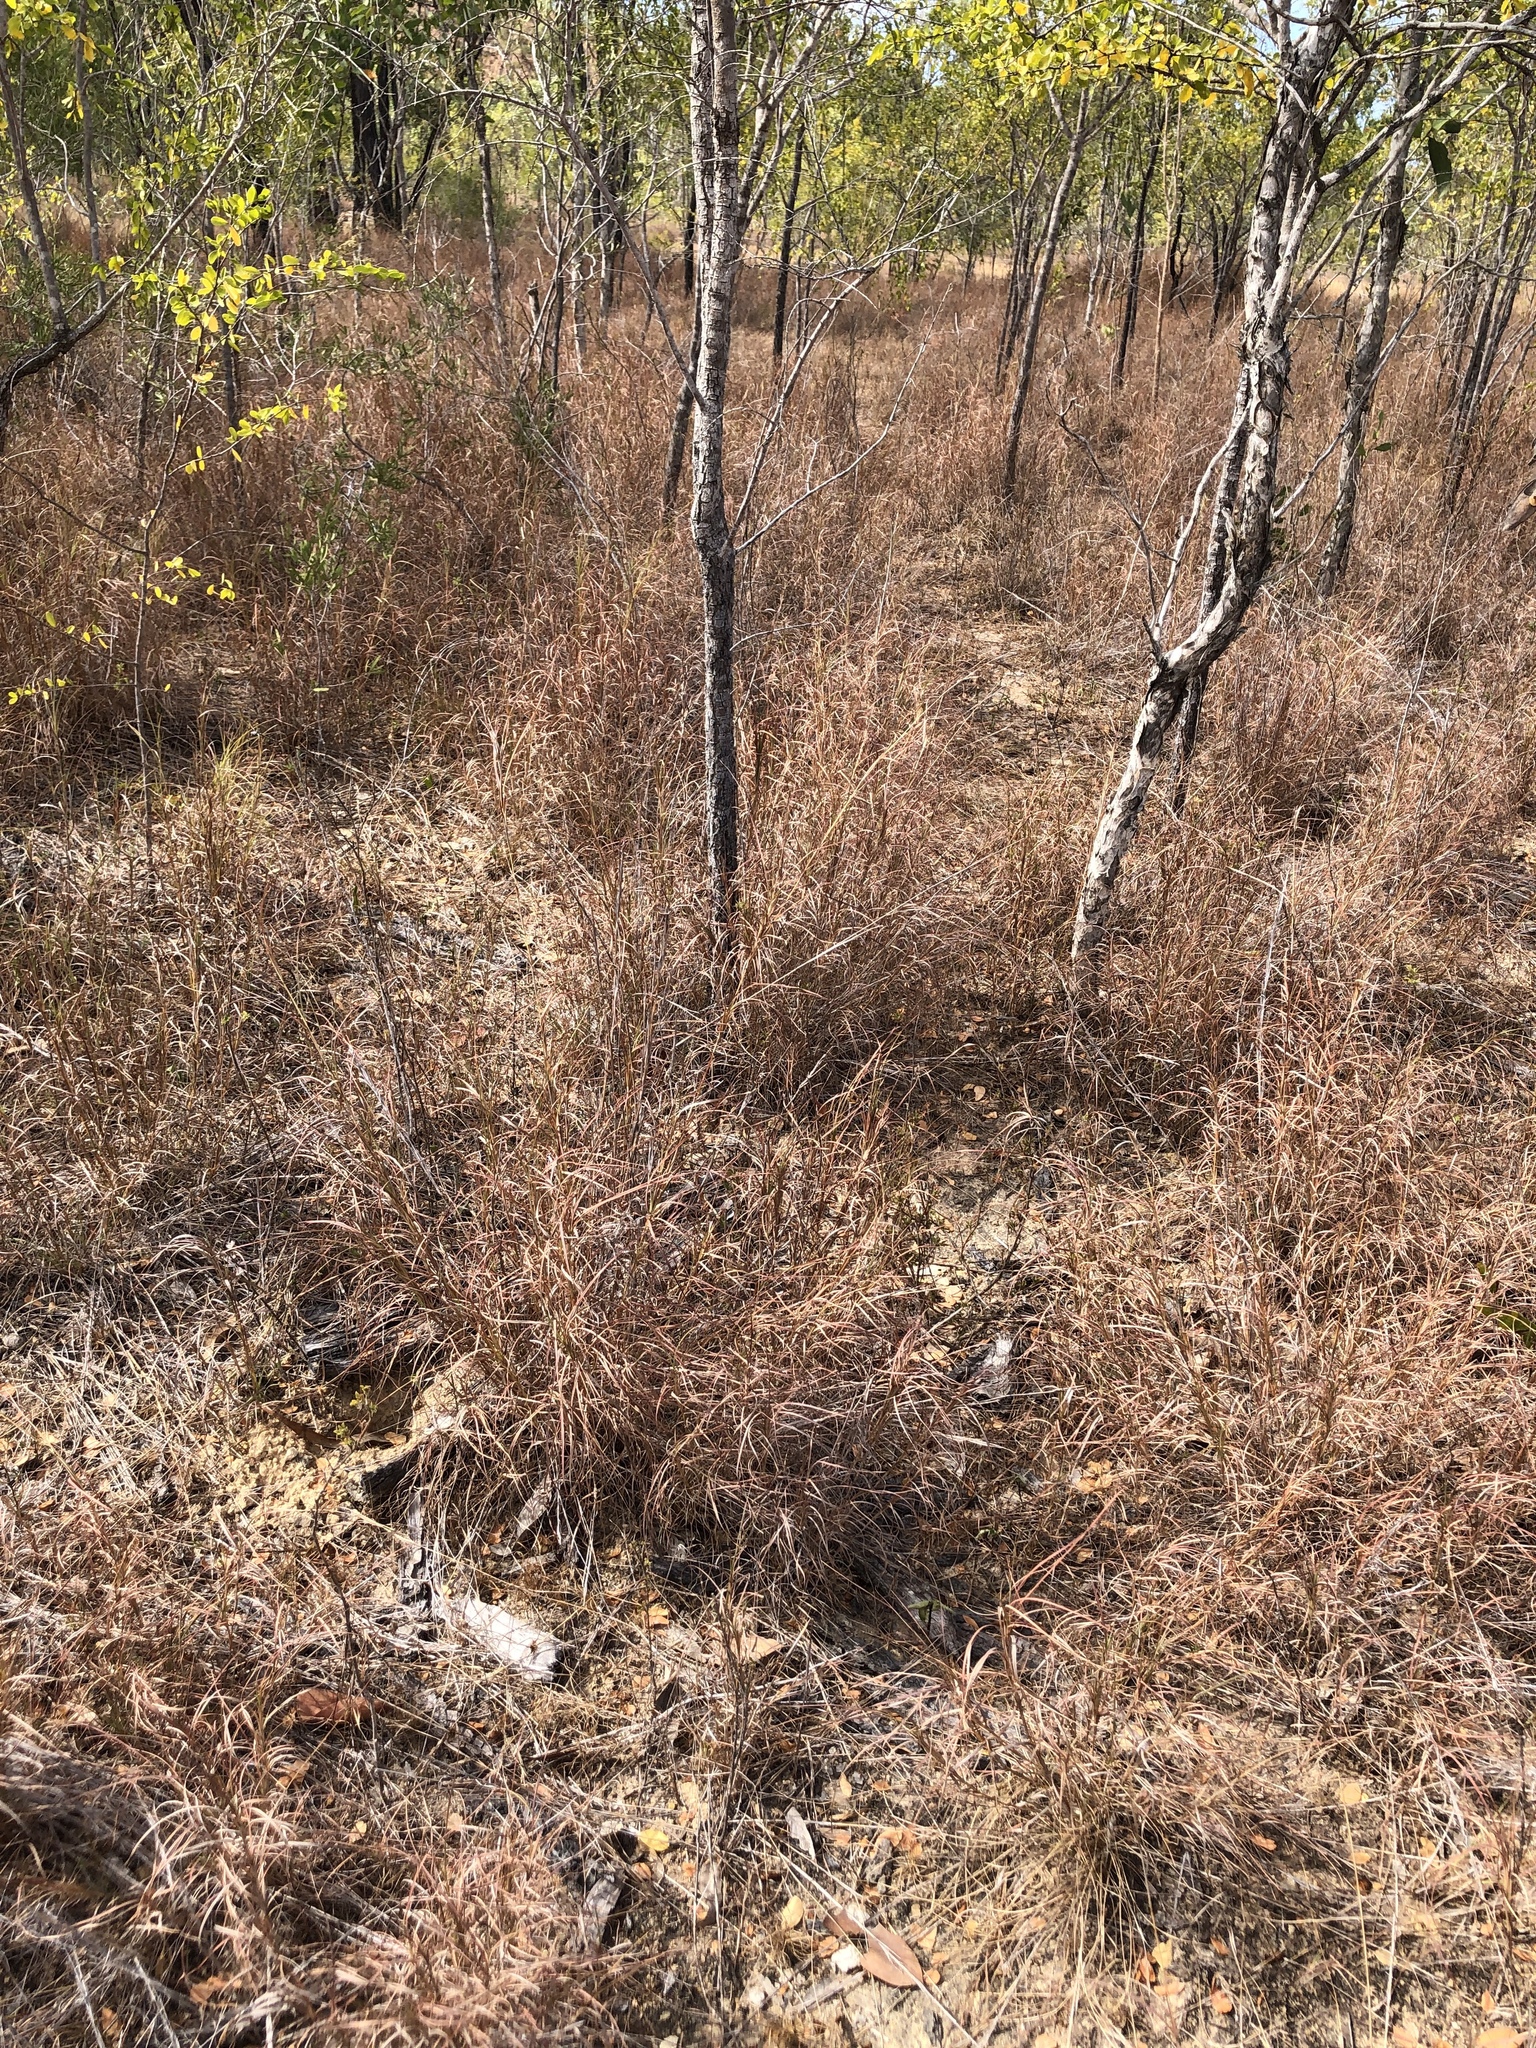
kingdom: Plantae
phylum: Tracheophyta
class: Liliopsida
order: Poales
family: Poaceae
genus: Themeda
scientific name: Themeda triandra
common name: Kangaroo grass
